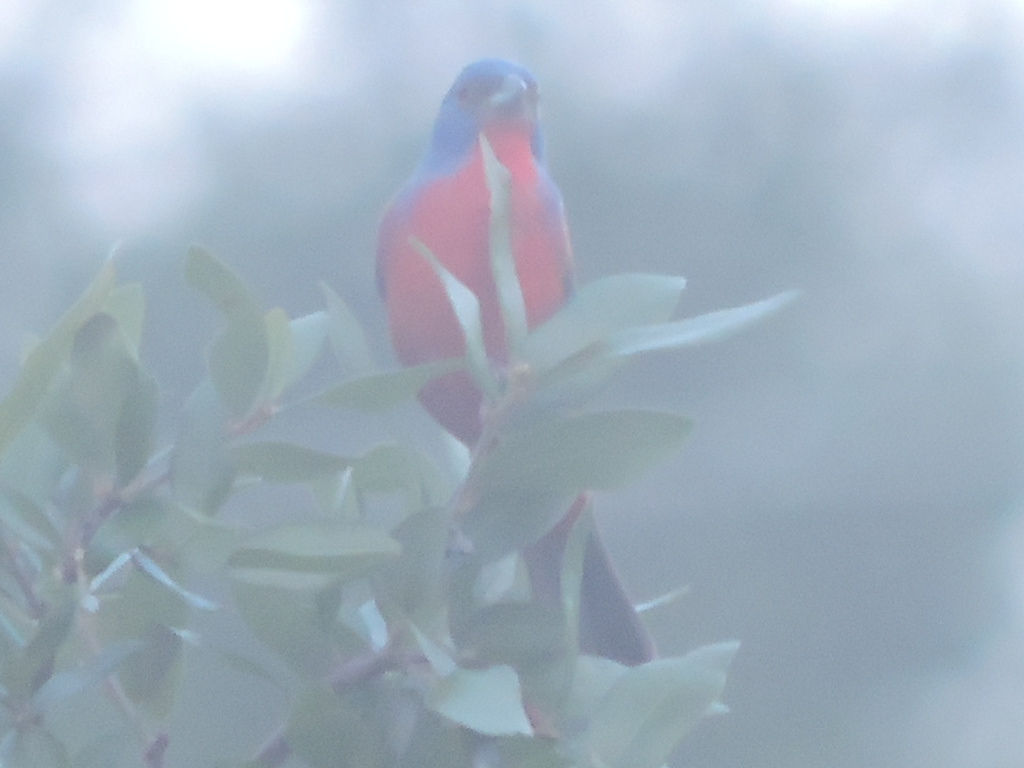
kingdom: Animalia
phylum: Chordata
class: Aves
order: Passeriformes
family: Cardinalidae
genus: Passerina
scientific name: Passerina ciris
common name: Painted bunting
